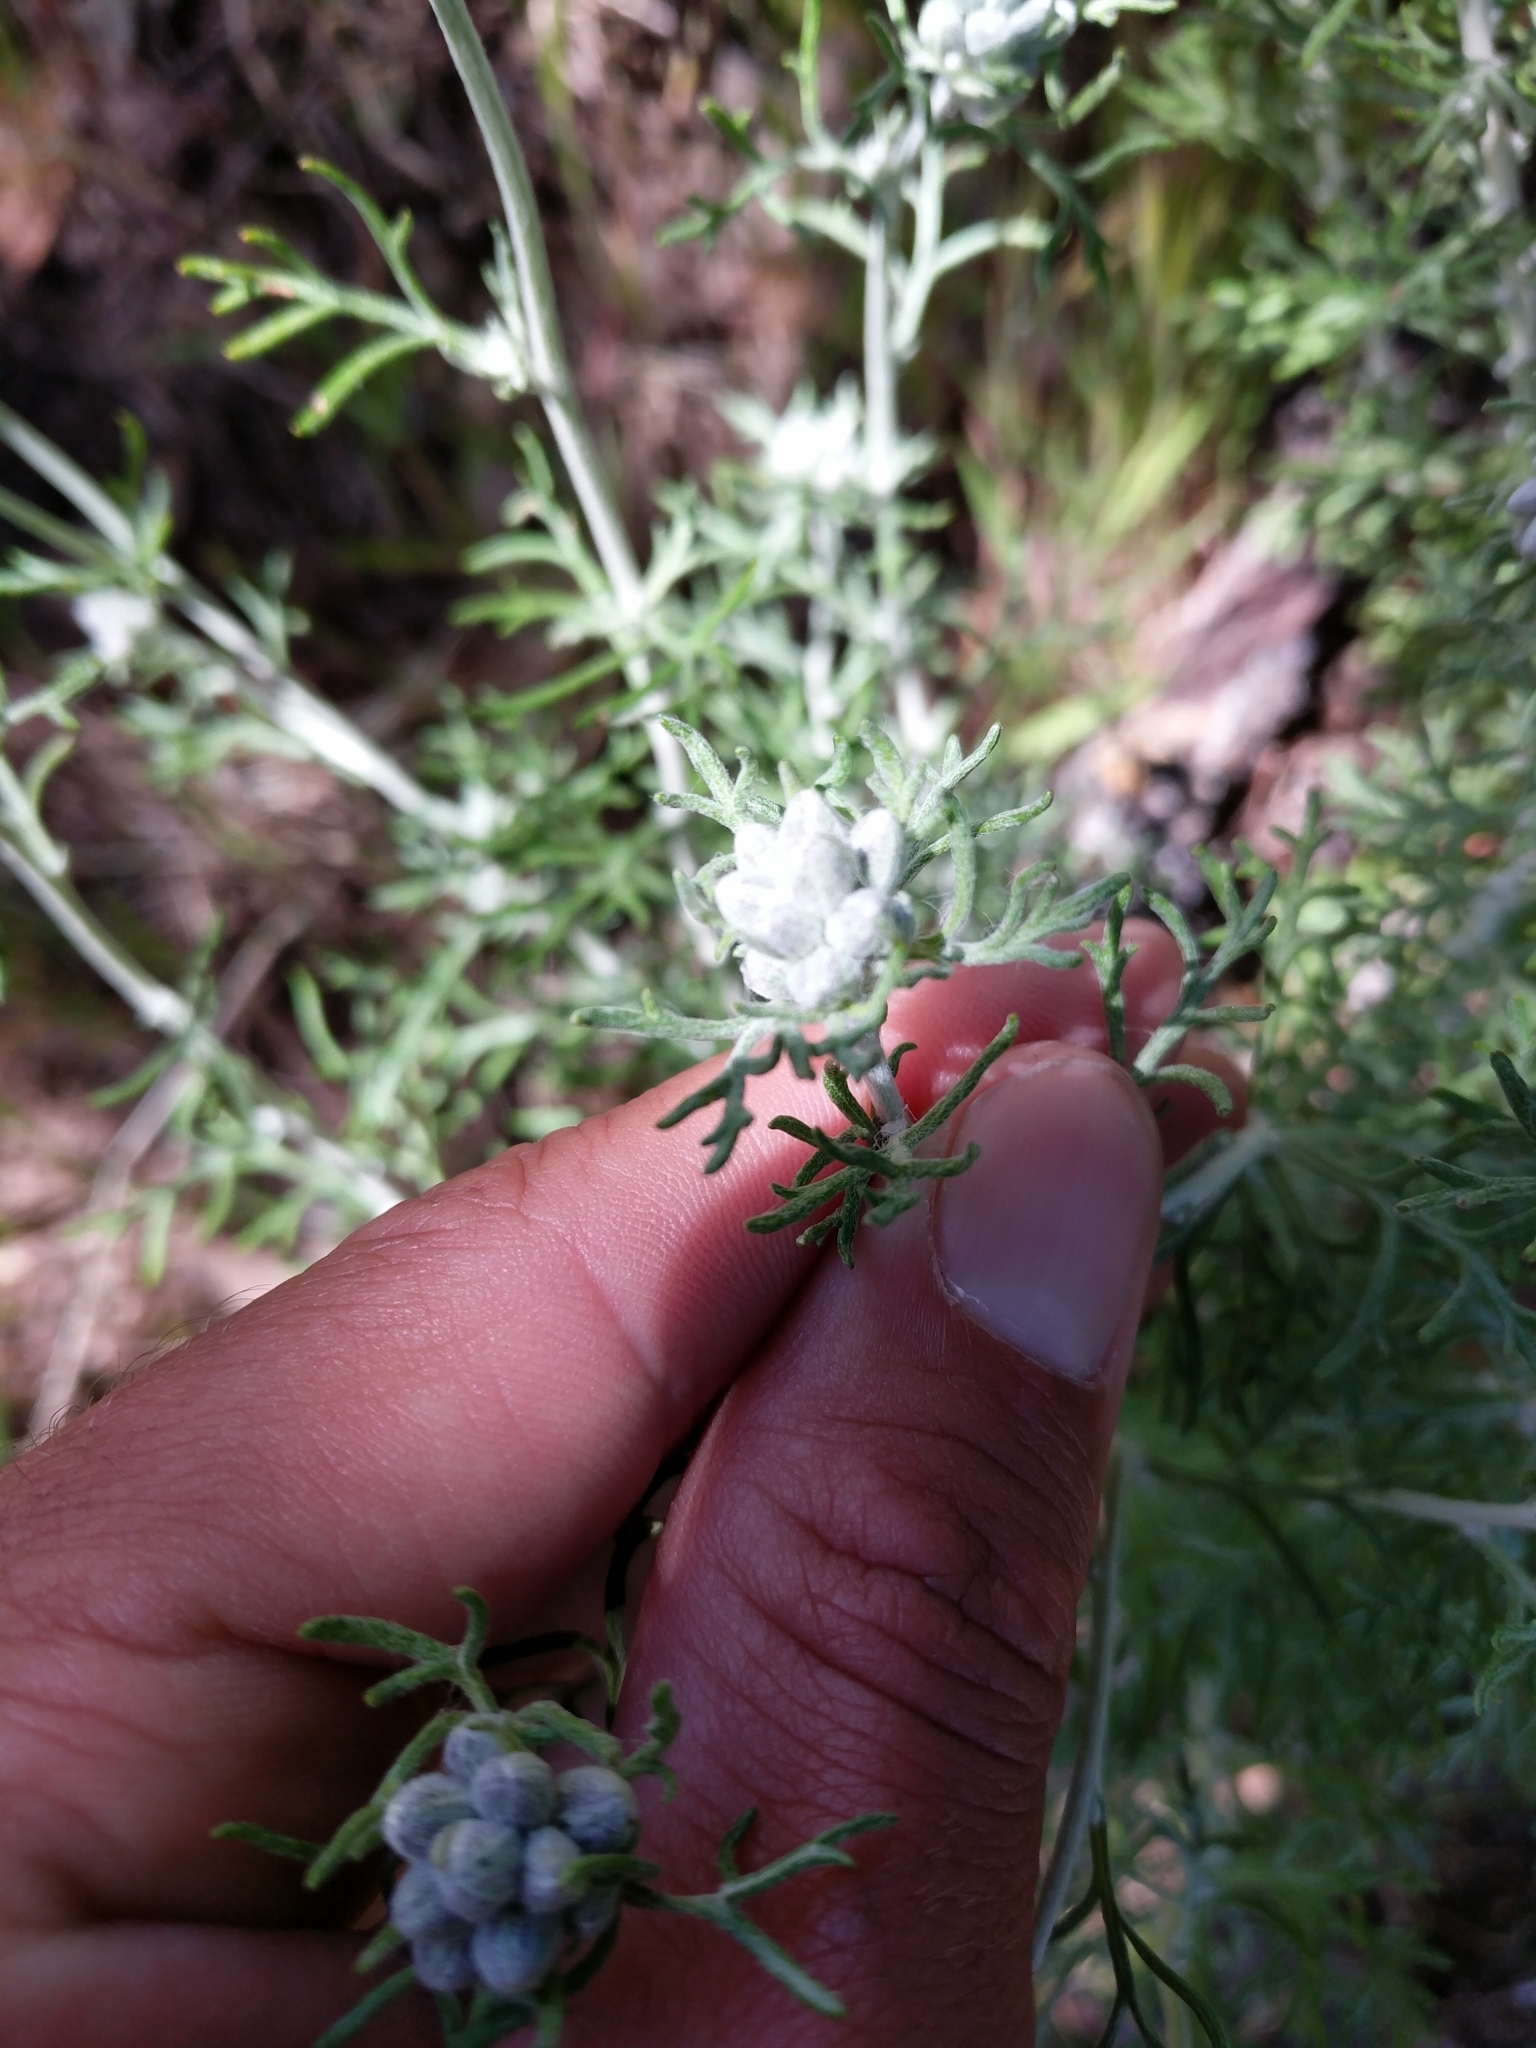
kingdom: Plantae
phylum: Tracheophyta
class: Magnoliopsida
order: Asterales
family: Asteraceae
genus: Eriophyllum
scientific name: Eriophyllum confertiflorum
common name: Golden-yarrow
